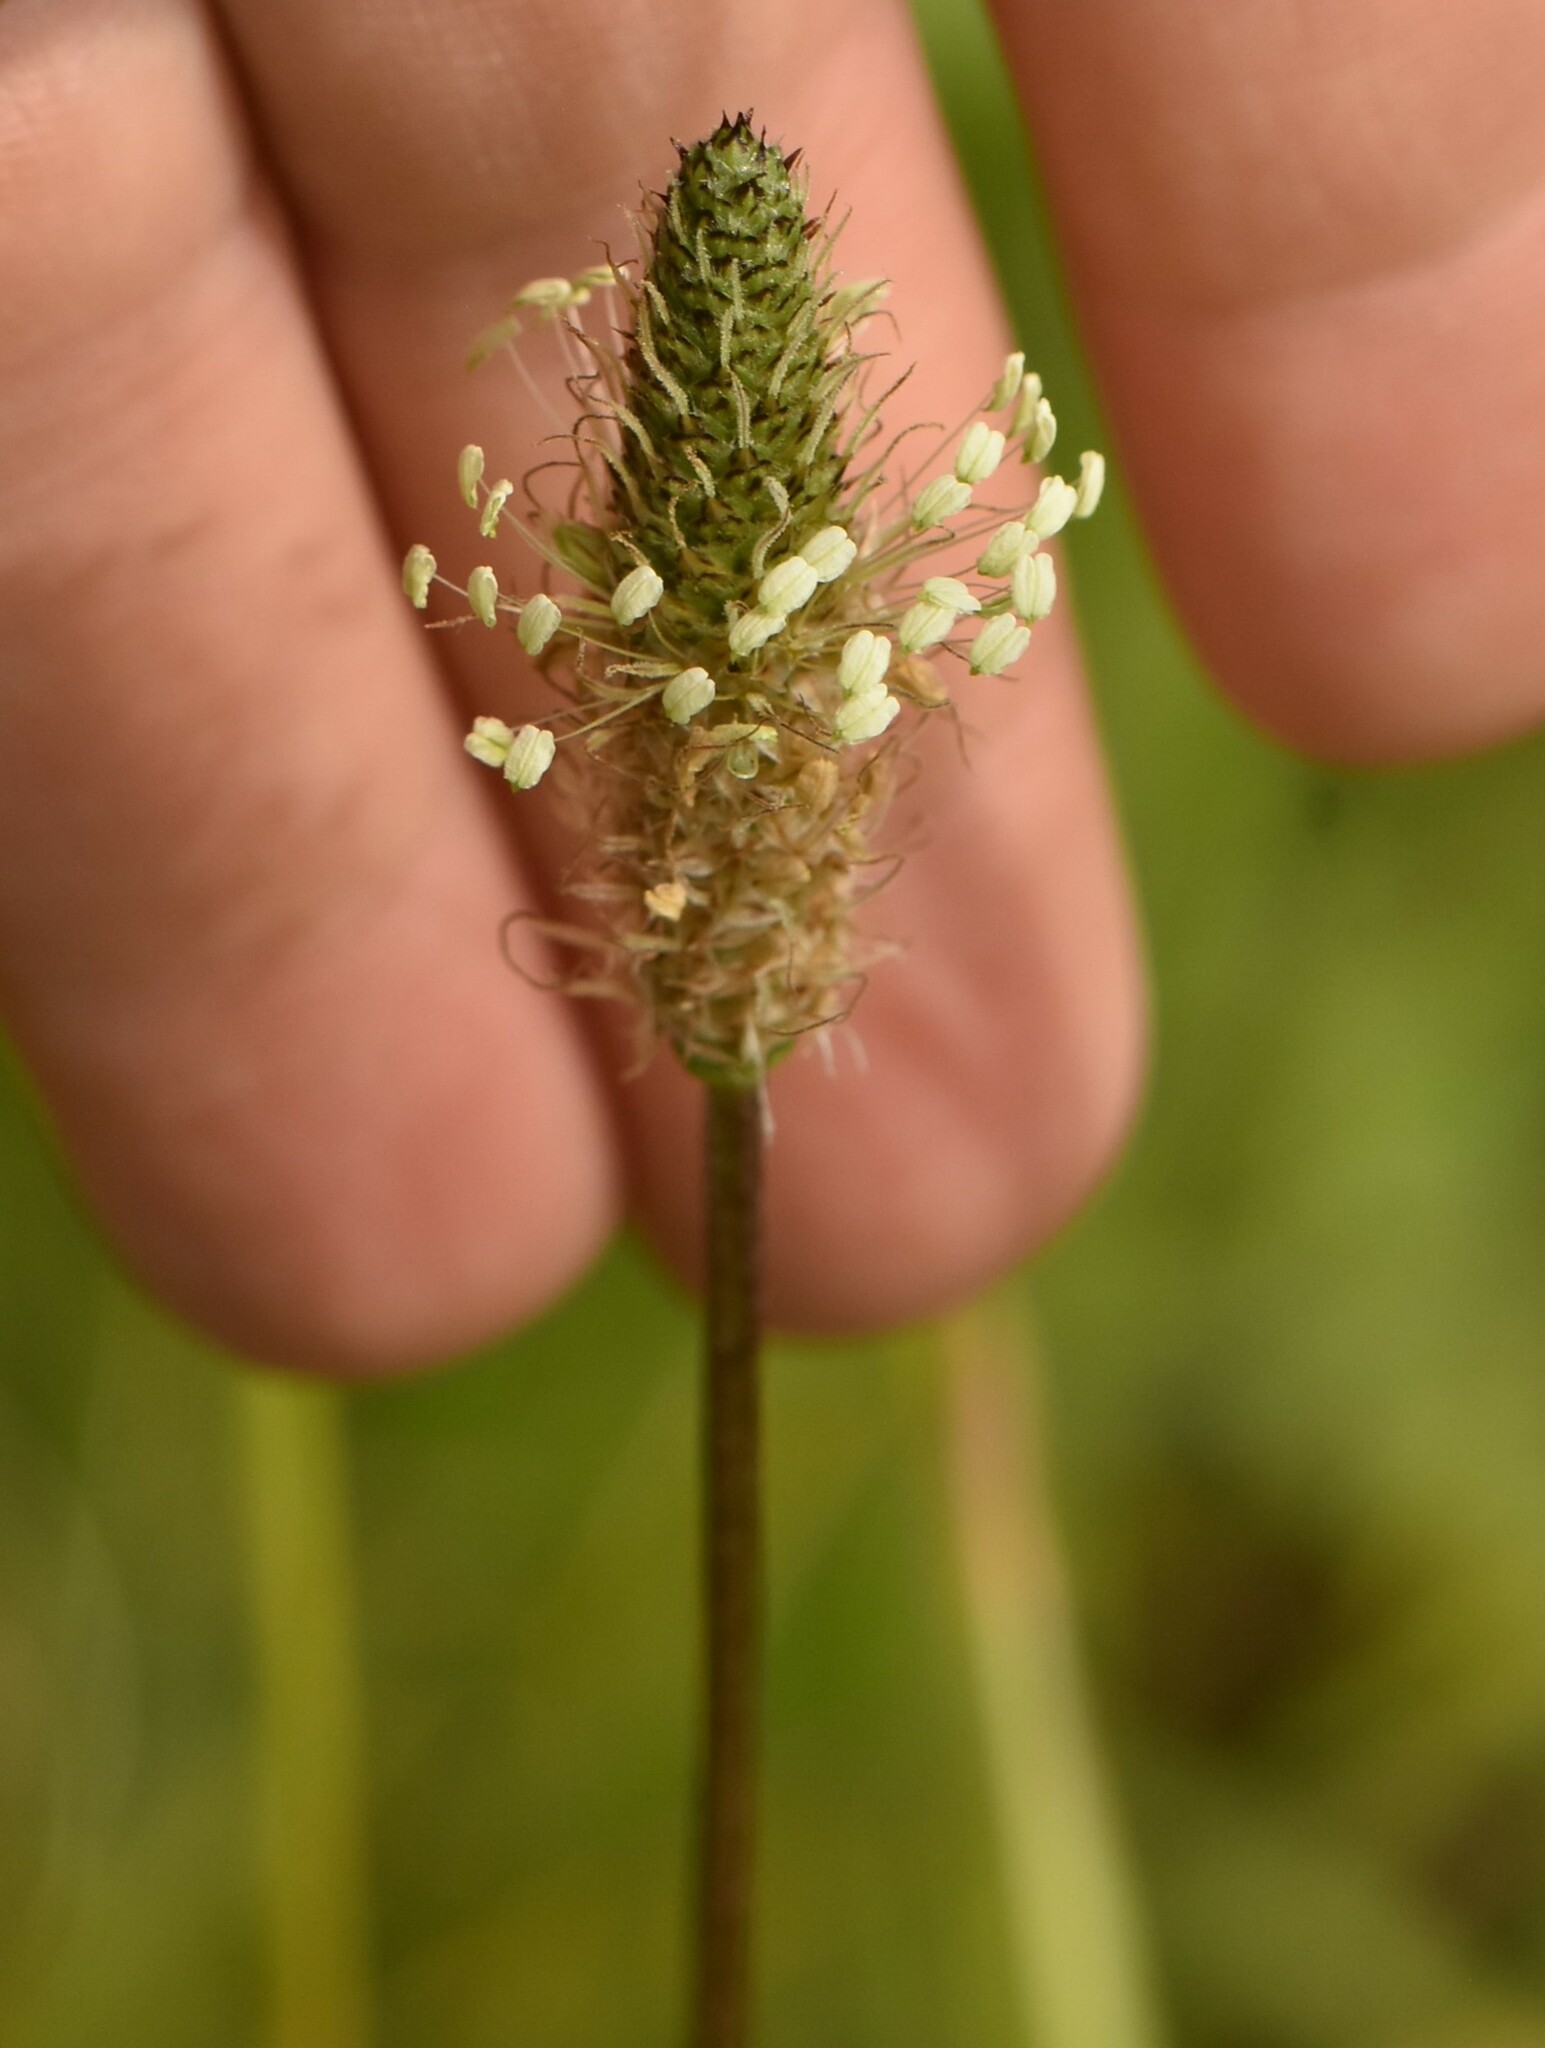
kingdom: Plantae
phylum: Tracheophyta
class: Magnoliopsida
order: Lamiales
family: Plantaginaceae
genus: Plantago
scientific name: Plantago lanceolata
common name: Ribwort plantain
